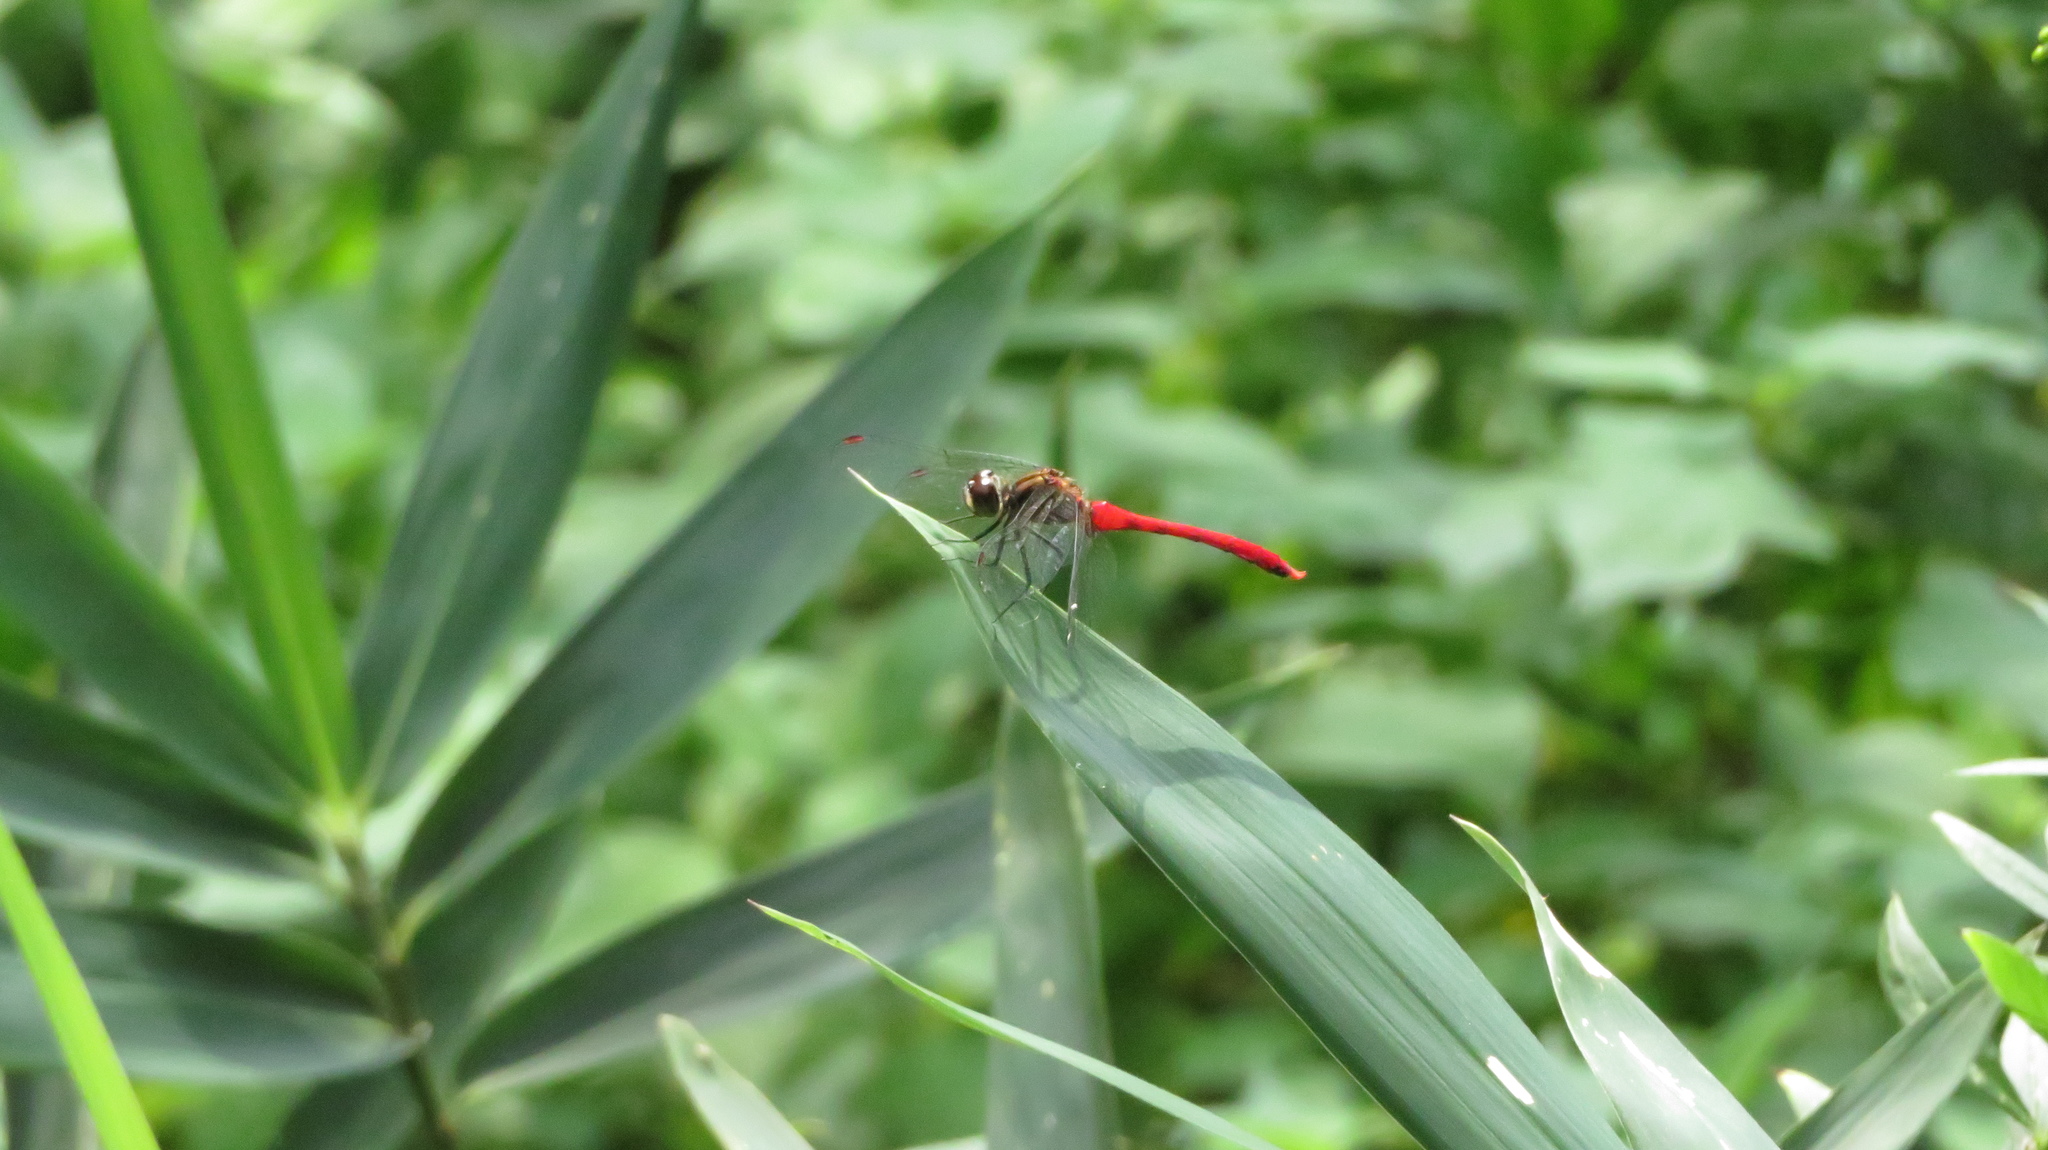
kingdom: Animalia
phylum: Arthropoda
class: Insecta
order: Odonata
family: Libellulidae
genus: Sympetrum
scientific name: Sympetrum eroticum
